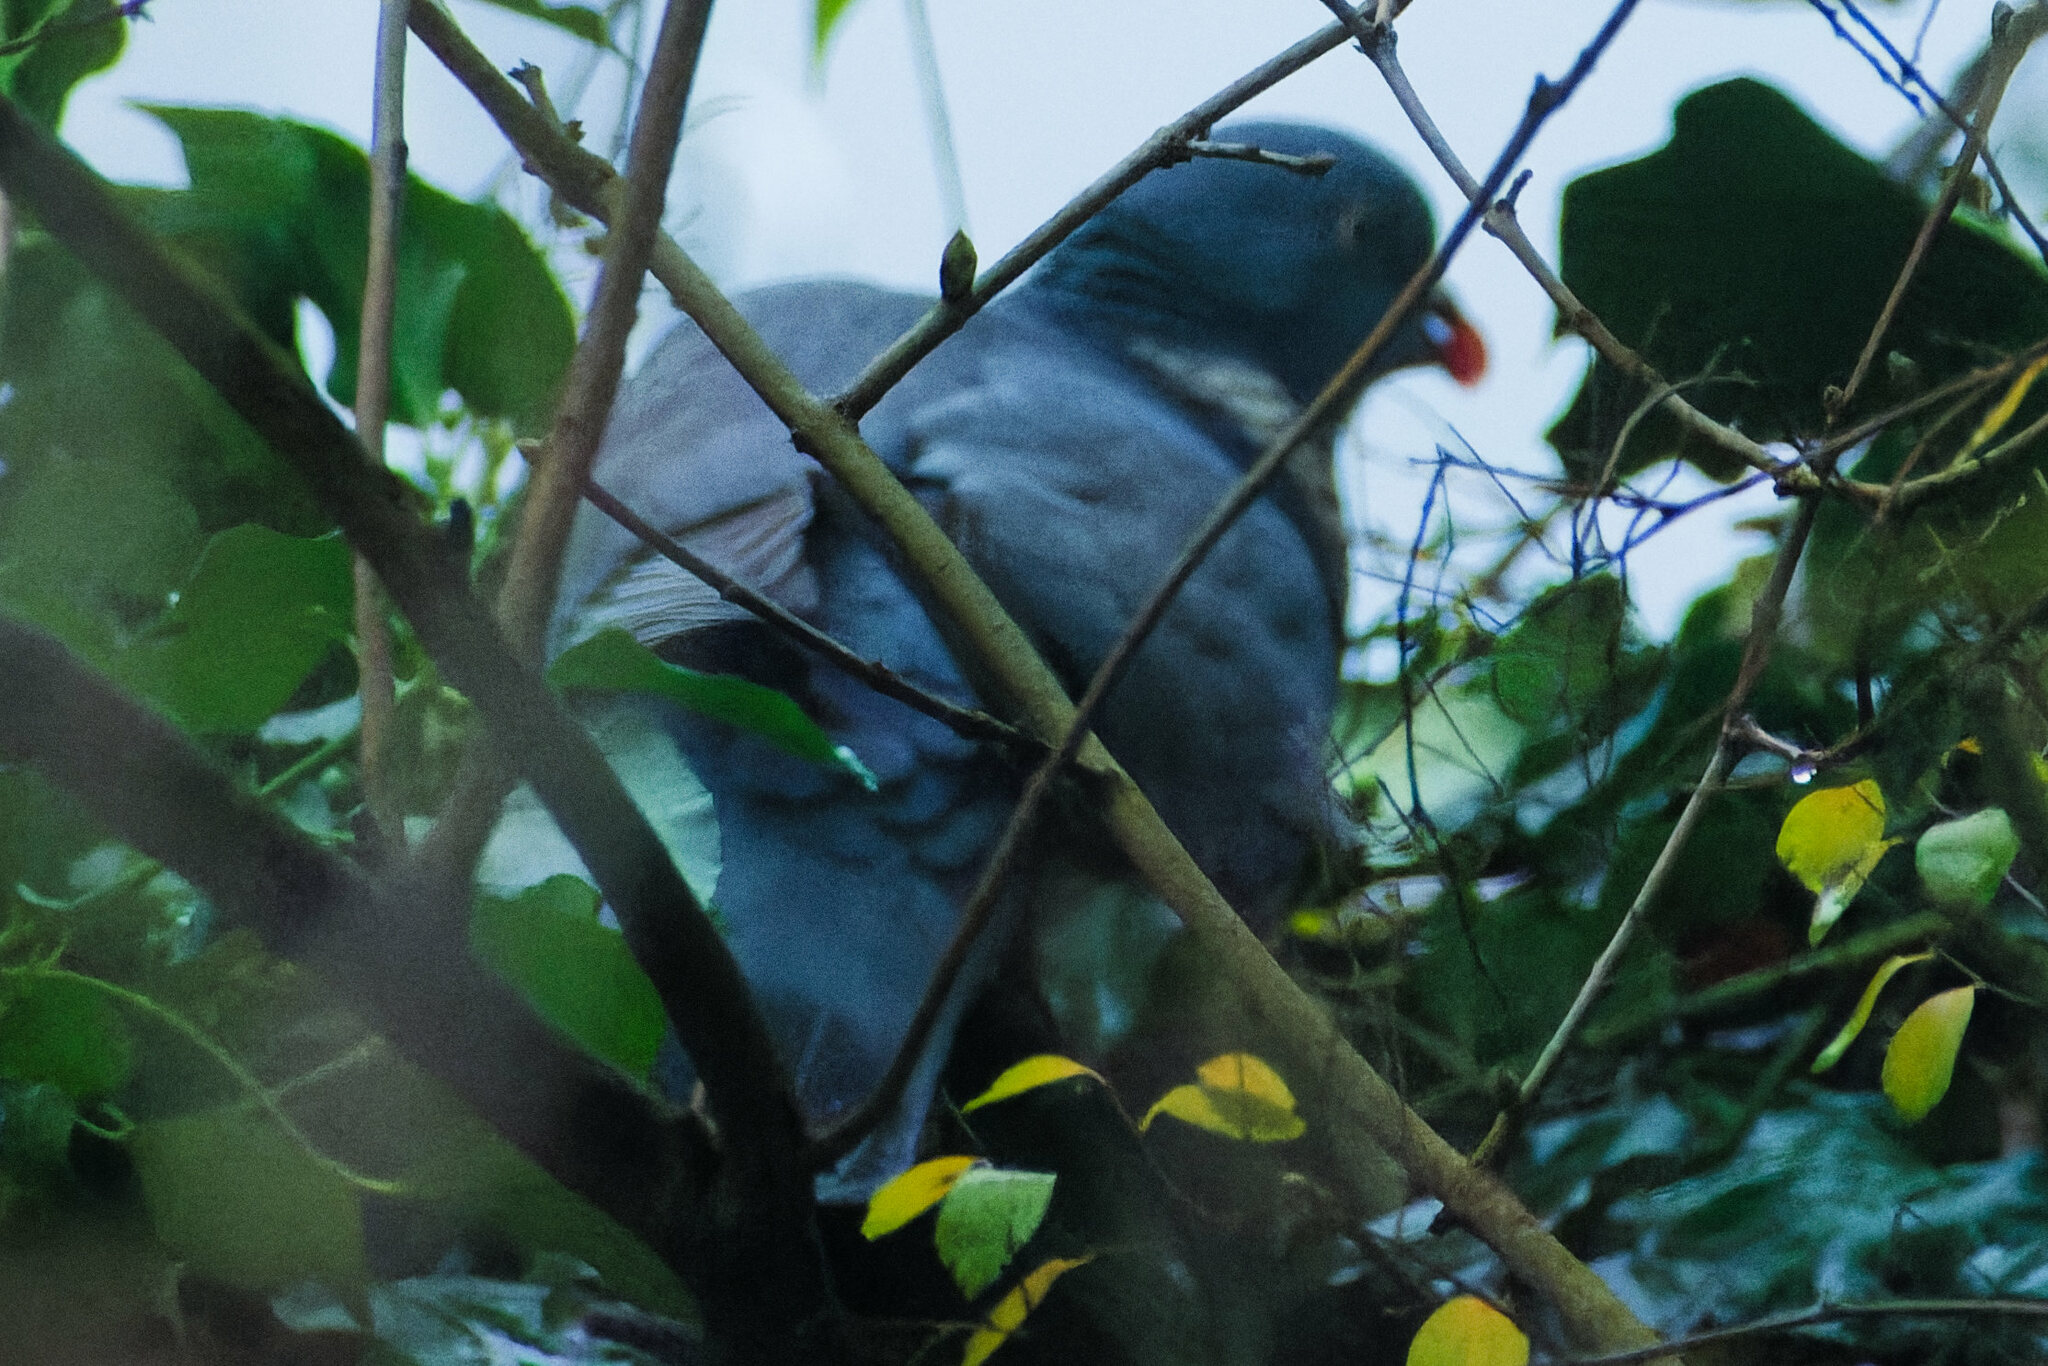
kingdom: Animalia
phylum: Chordata
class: Aves
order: Columbiformes
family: Columbidae
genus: Columba
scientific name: Columba palumbus
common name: Common wood pigeon
